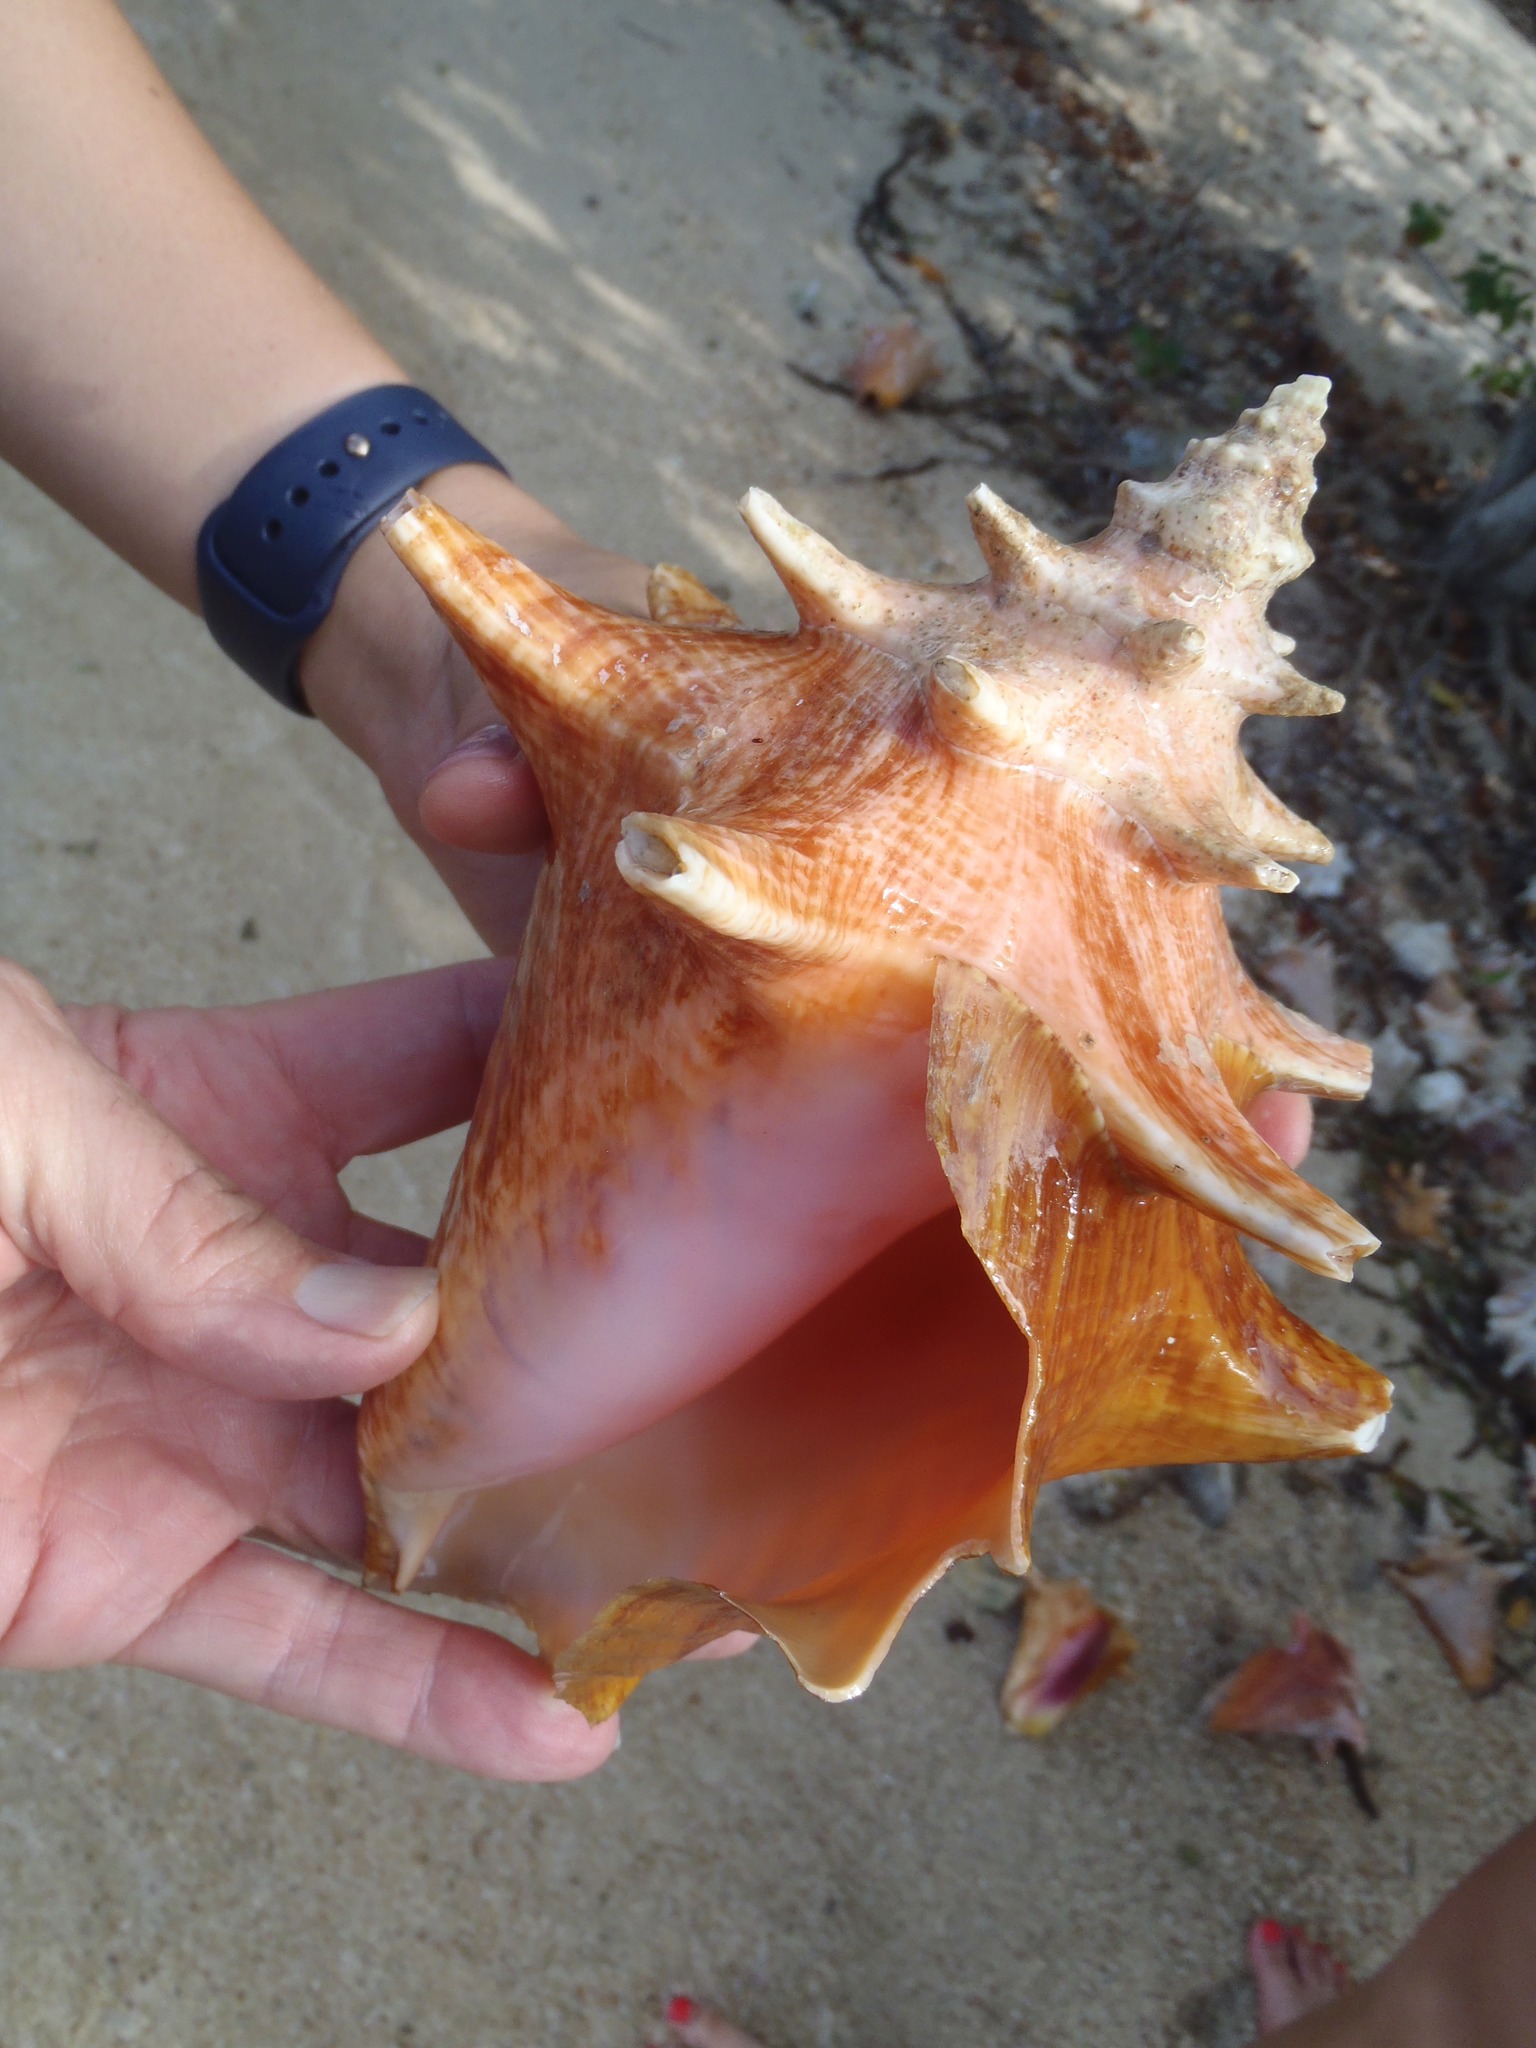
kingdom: Animalia
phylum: Mollusca
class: Gastropoda
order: Littorinimorpha
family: Strombidae
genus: Aliger
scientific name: Aliger gigas
